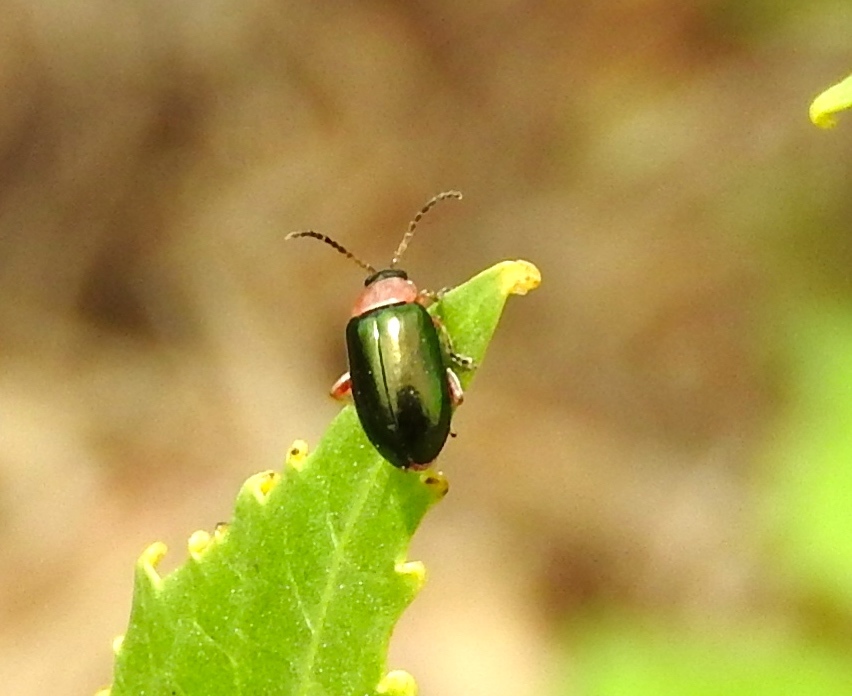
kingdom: Animalia
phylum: Arthropoda
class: Insecta
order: Coleoptera
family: Chrysomelidae
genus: Disonycha
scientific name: Disonycha
